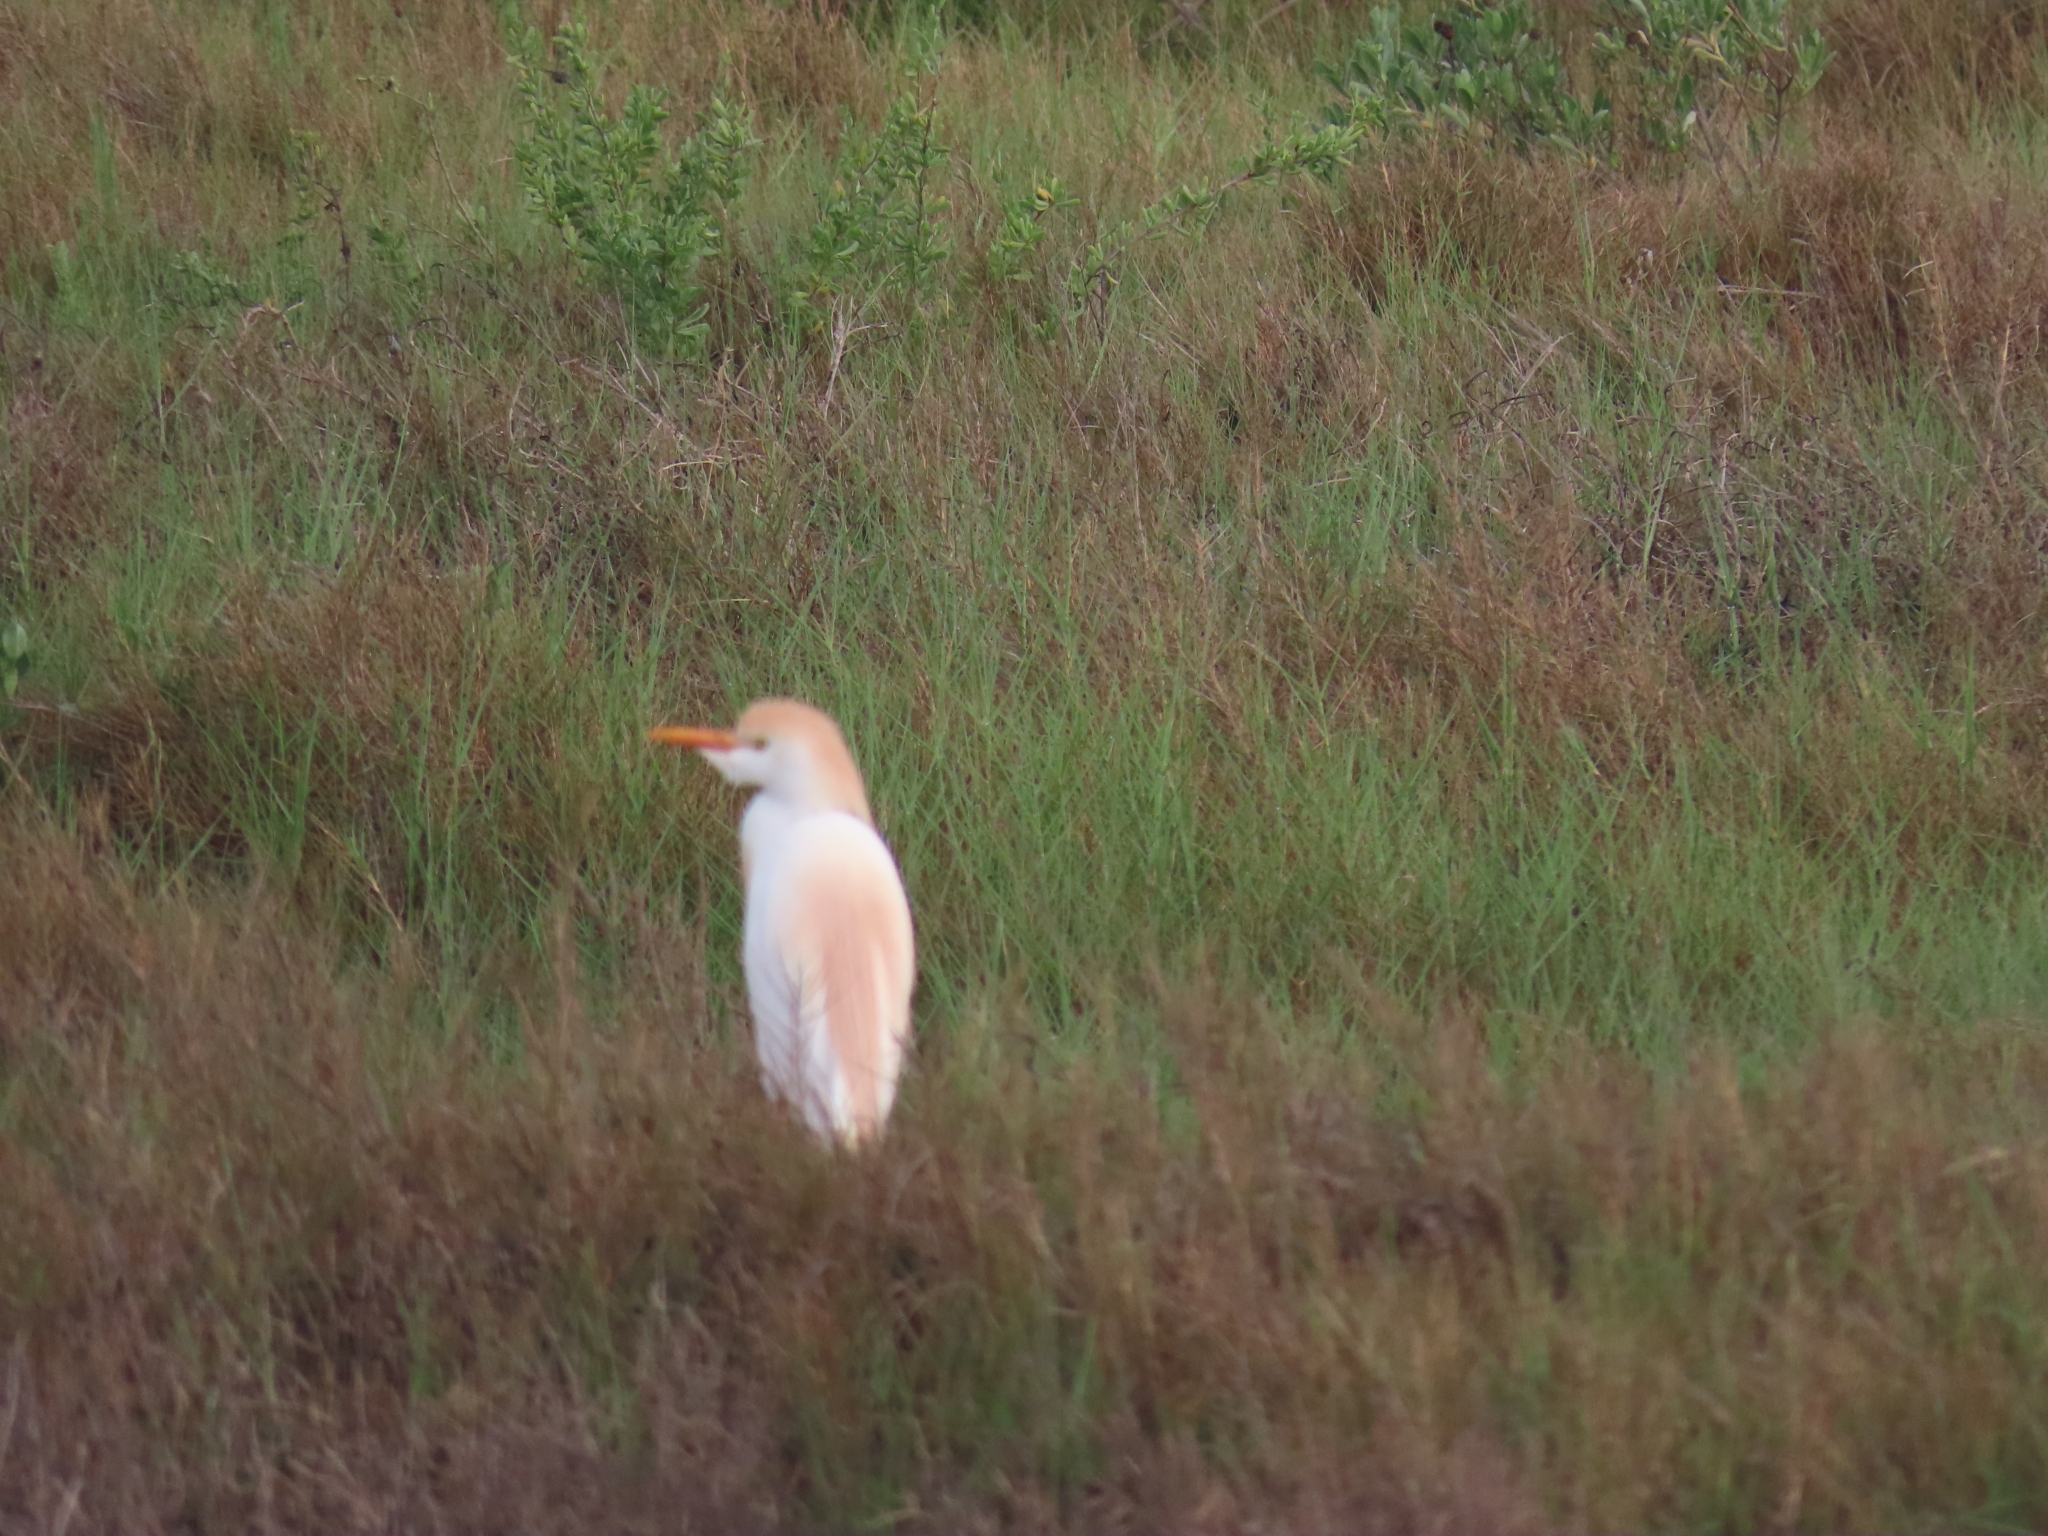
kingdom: Animalia
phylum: Chordata
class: Aves
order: Pelecaniformes
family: Ardeidae
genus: Bubulcus
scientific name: Bubulcus ibis
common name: Cattle egret
